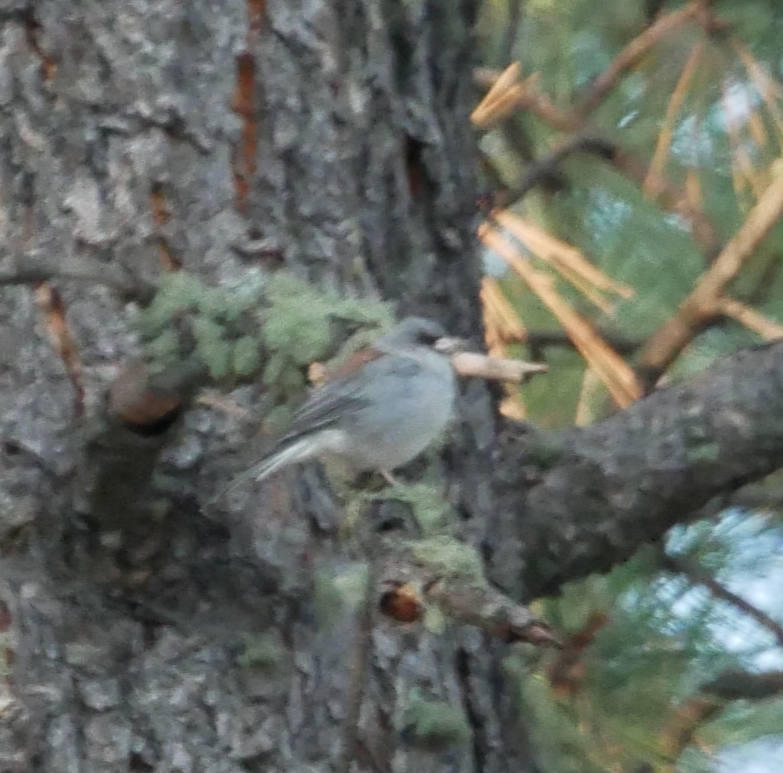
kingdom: Animalia
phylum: Chordata
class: Aves
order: Passeriformes
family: Passerellidae
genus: Junco
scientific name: Junco hyemalis
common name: Dark-eyed junco
